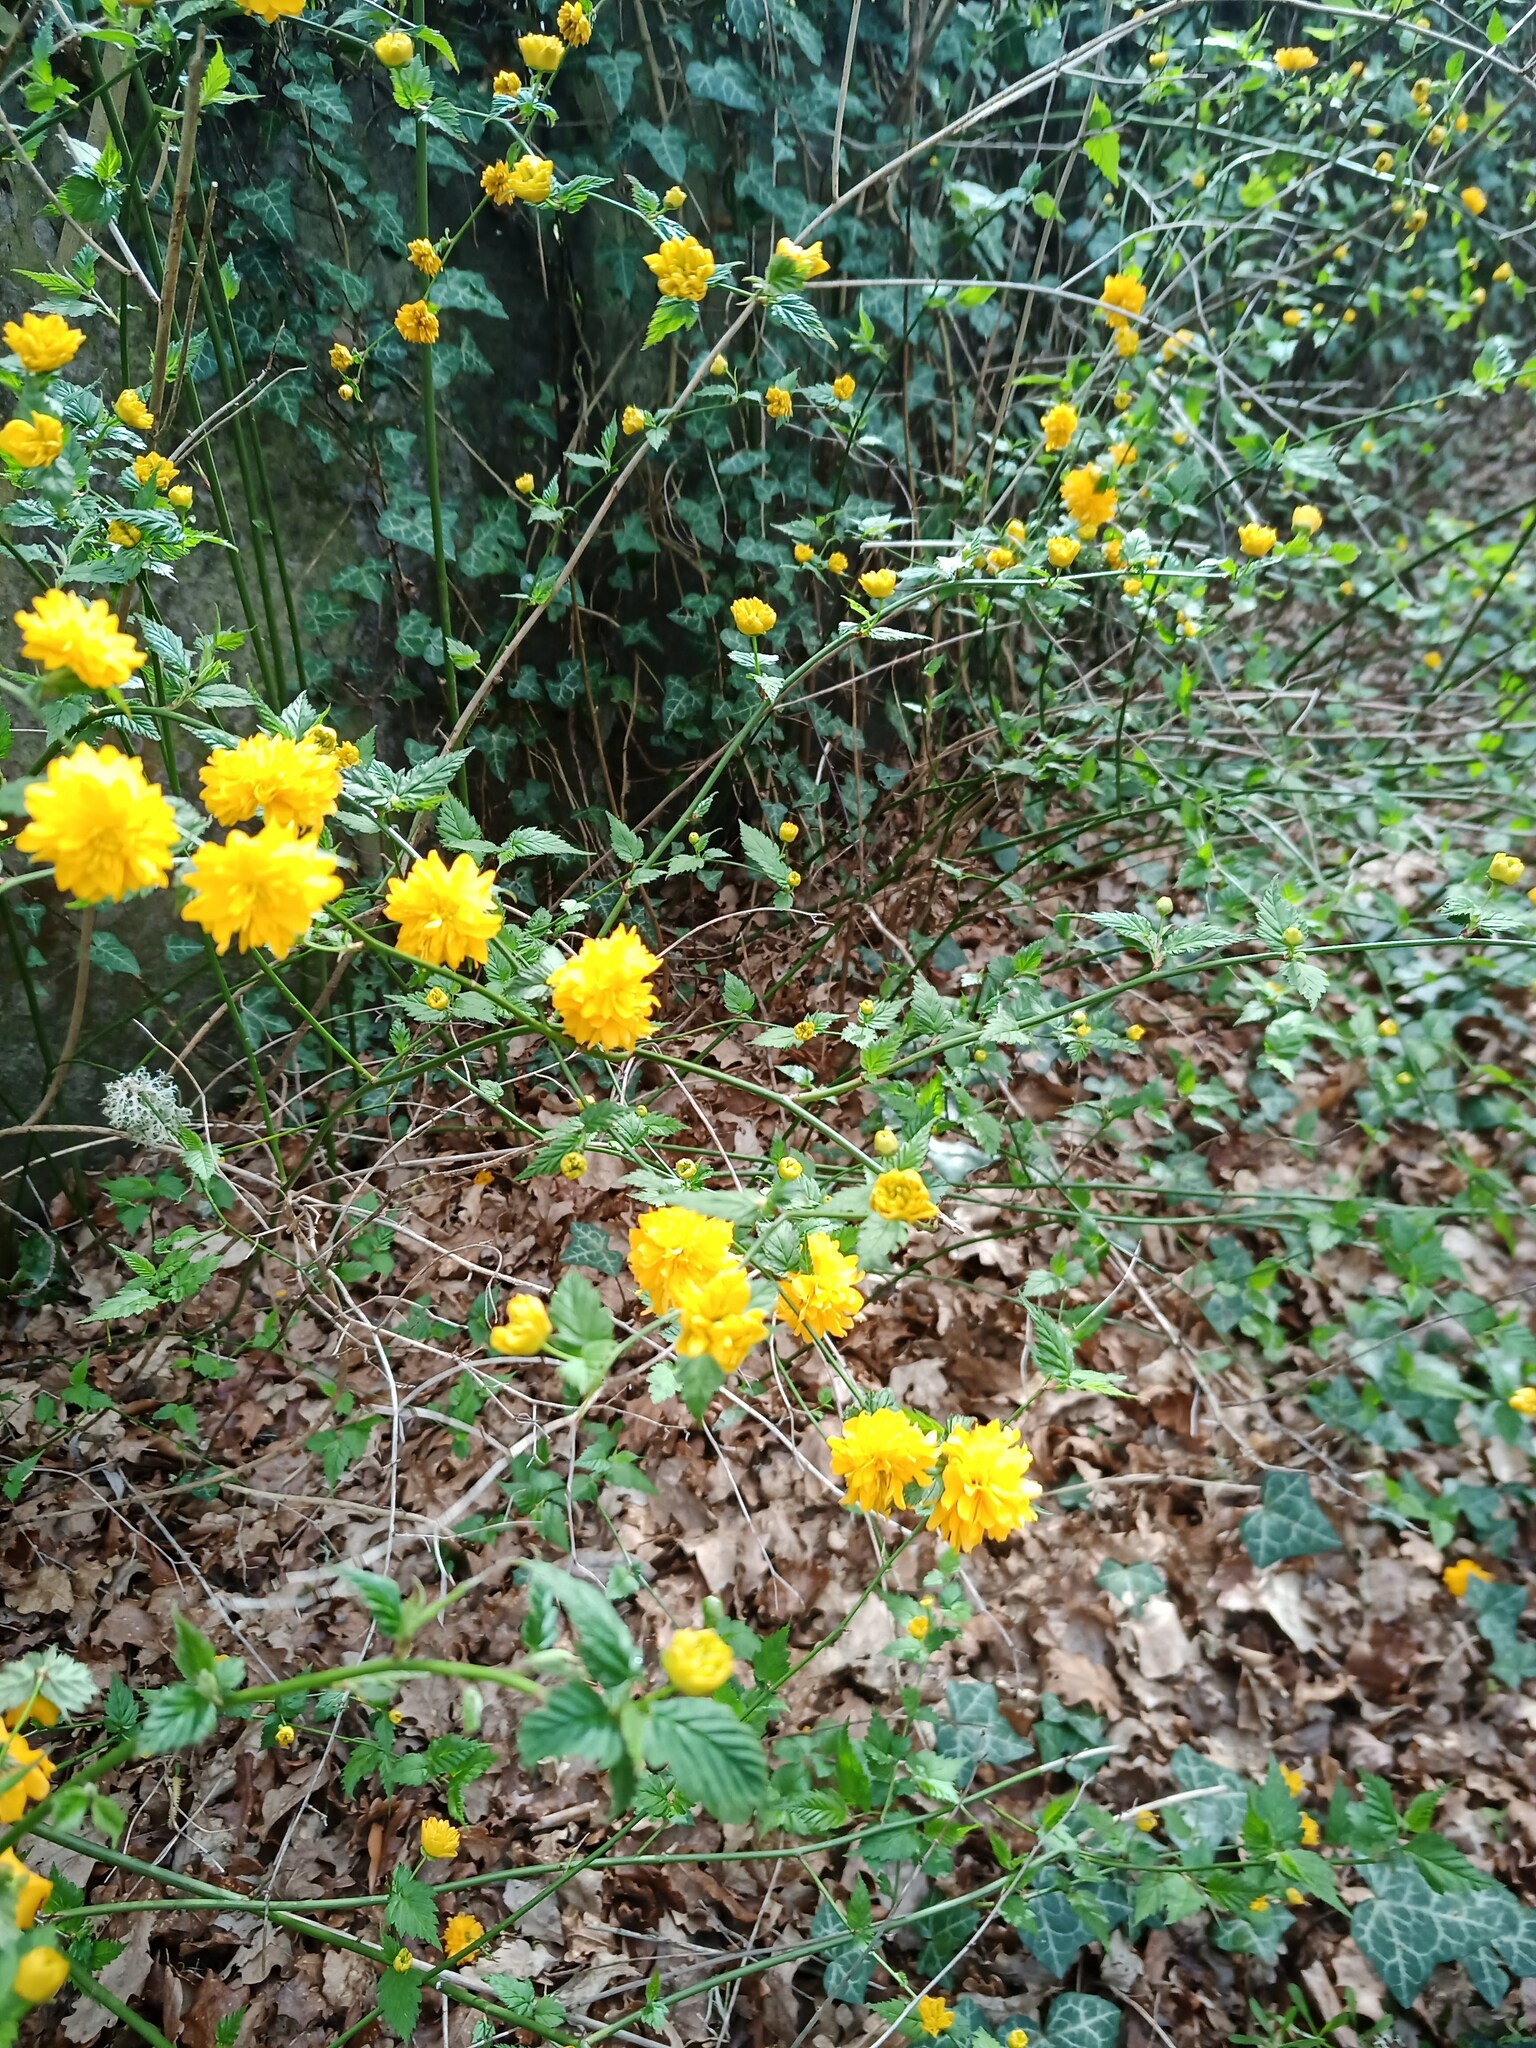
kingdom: Plantae
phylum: Tracheophyta
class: Magnoliopsida
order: Rosales
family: Rosaceae
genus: Kerria
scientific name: Kerria japonica
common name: Japanese kerria
